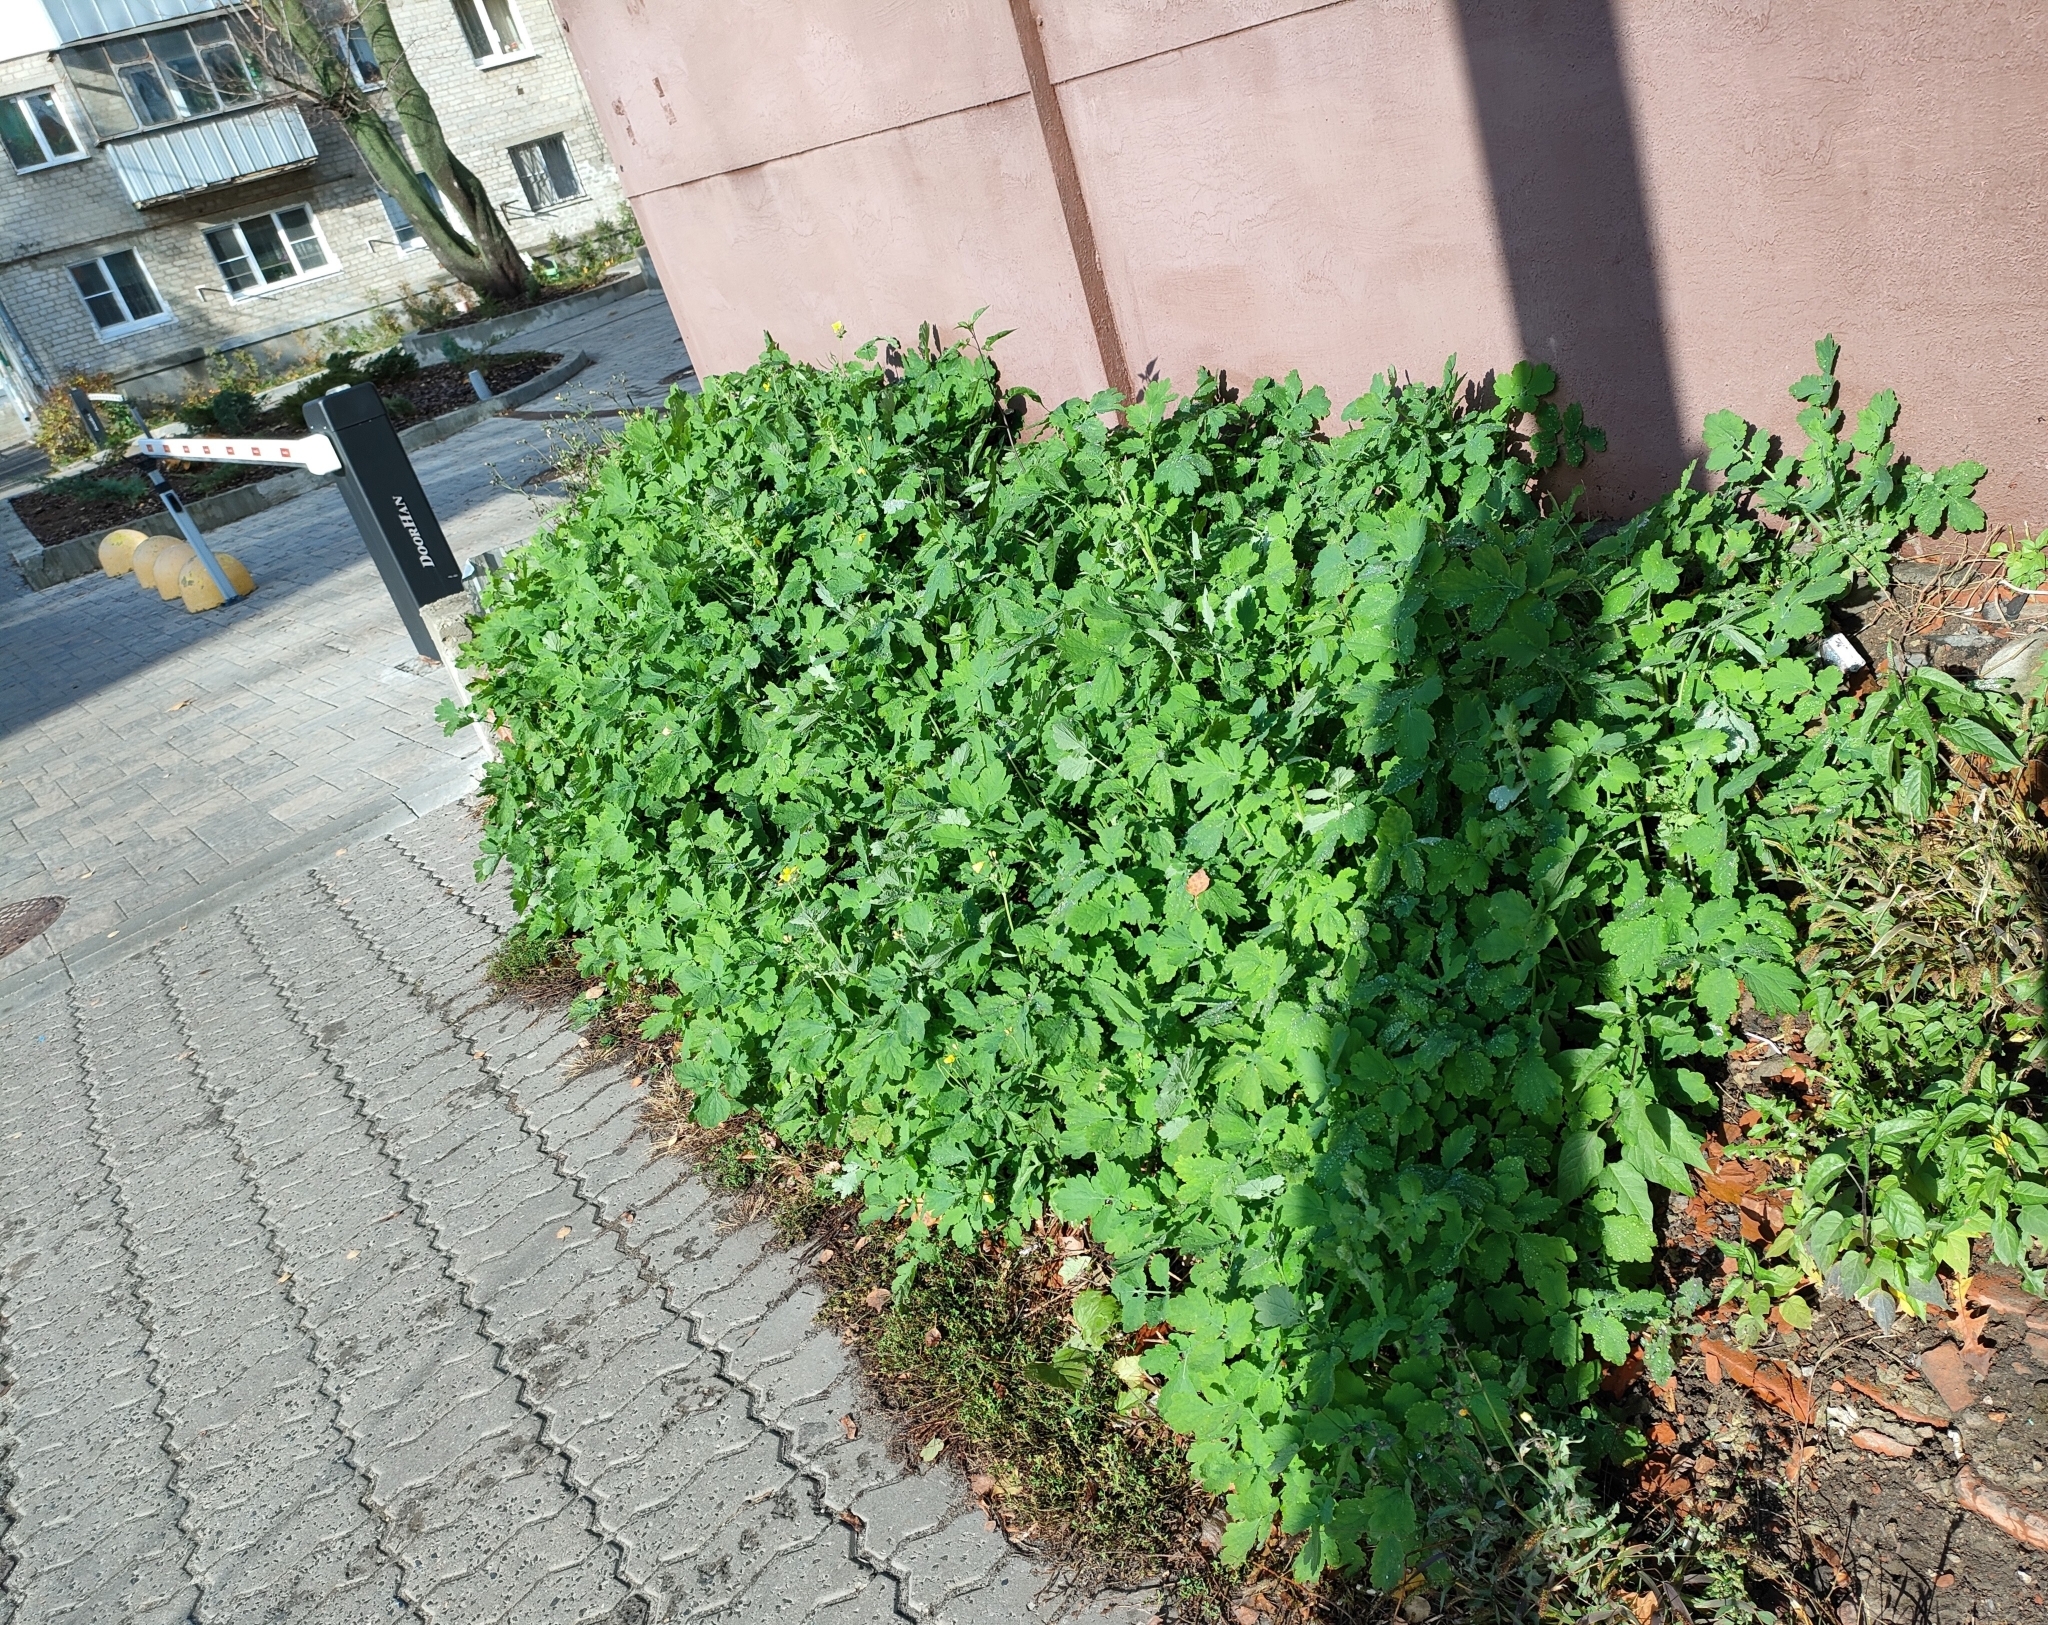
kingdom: Plantae
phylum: Tracheophyta
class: Magnoliopsida
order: Ranunculales
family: Papaveraceae
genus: Chelidonium
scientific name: Chelidonium majus
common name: Greater celandine
